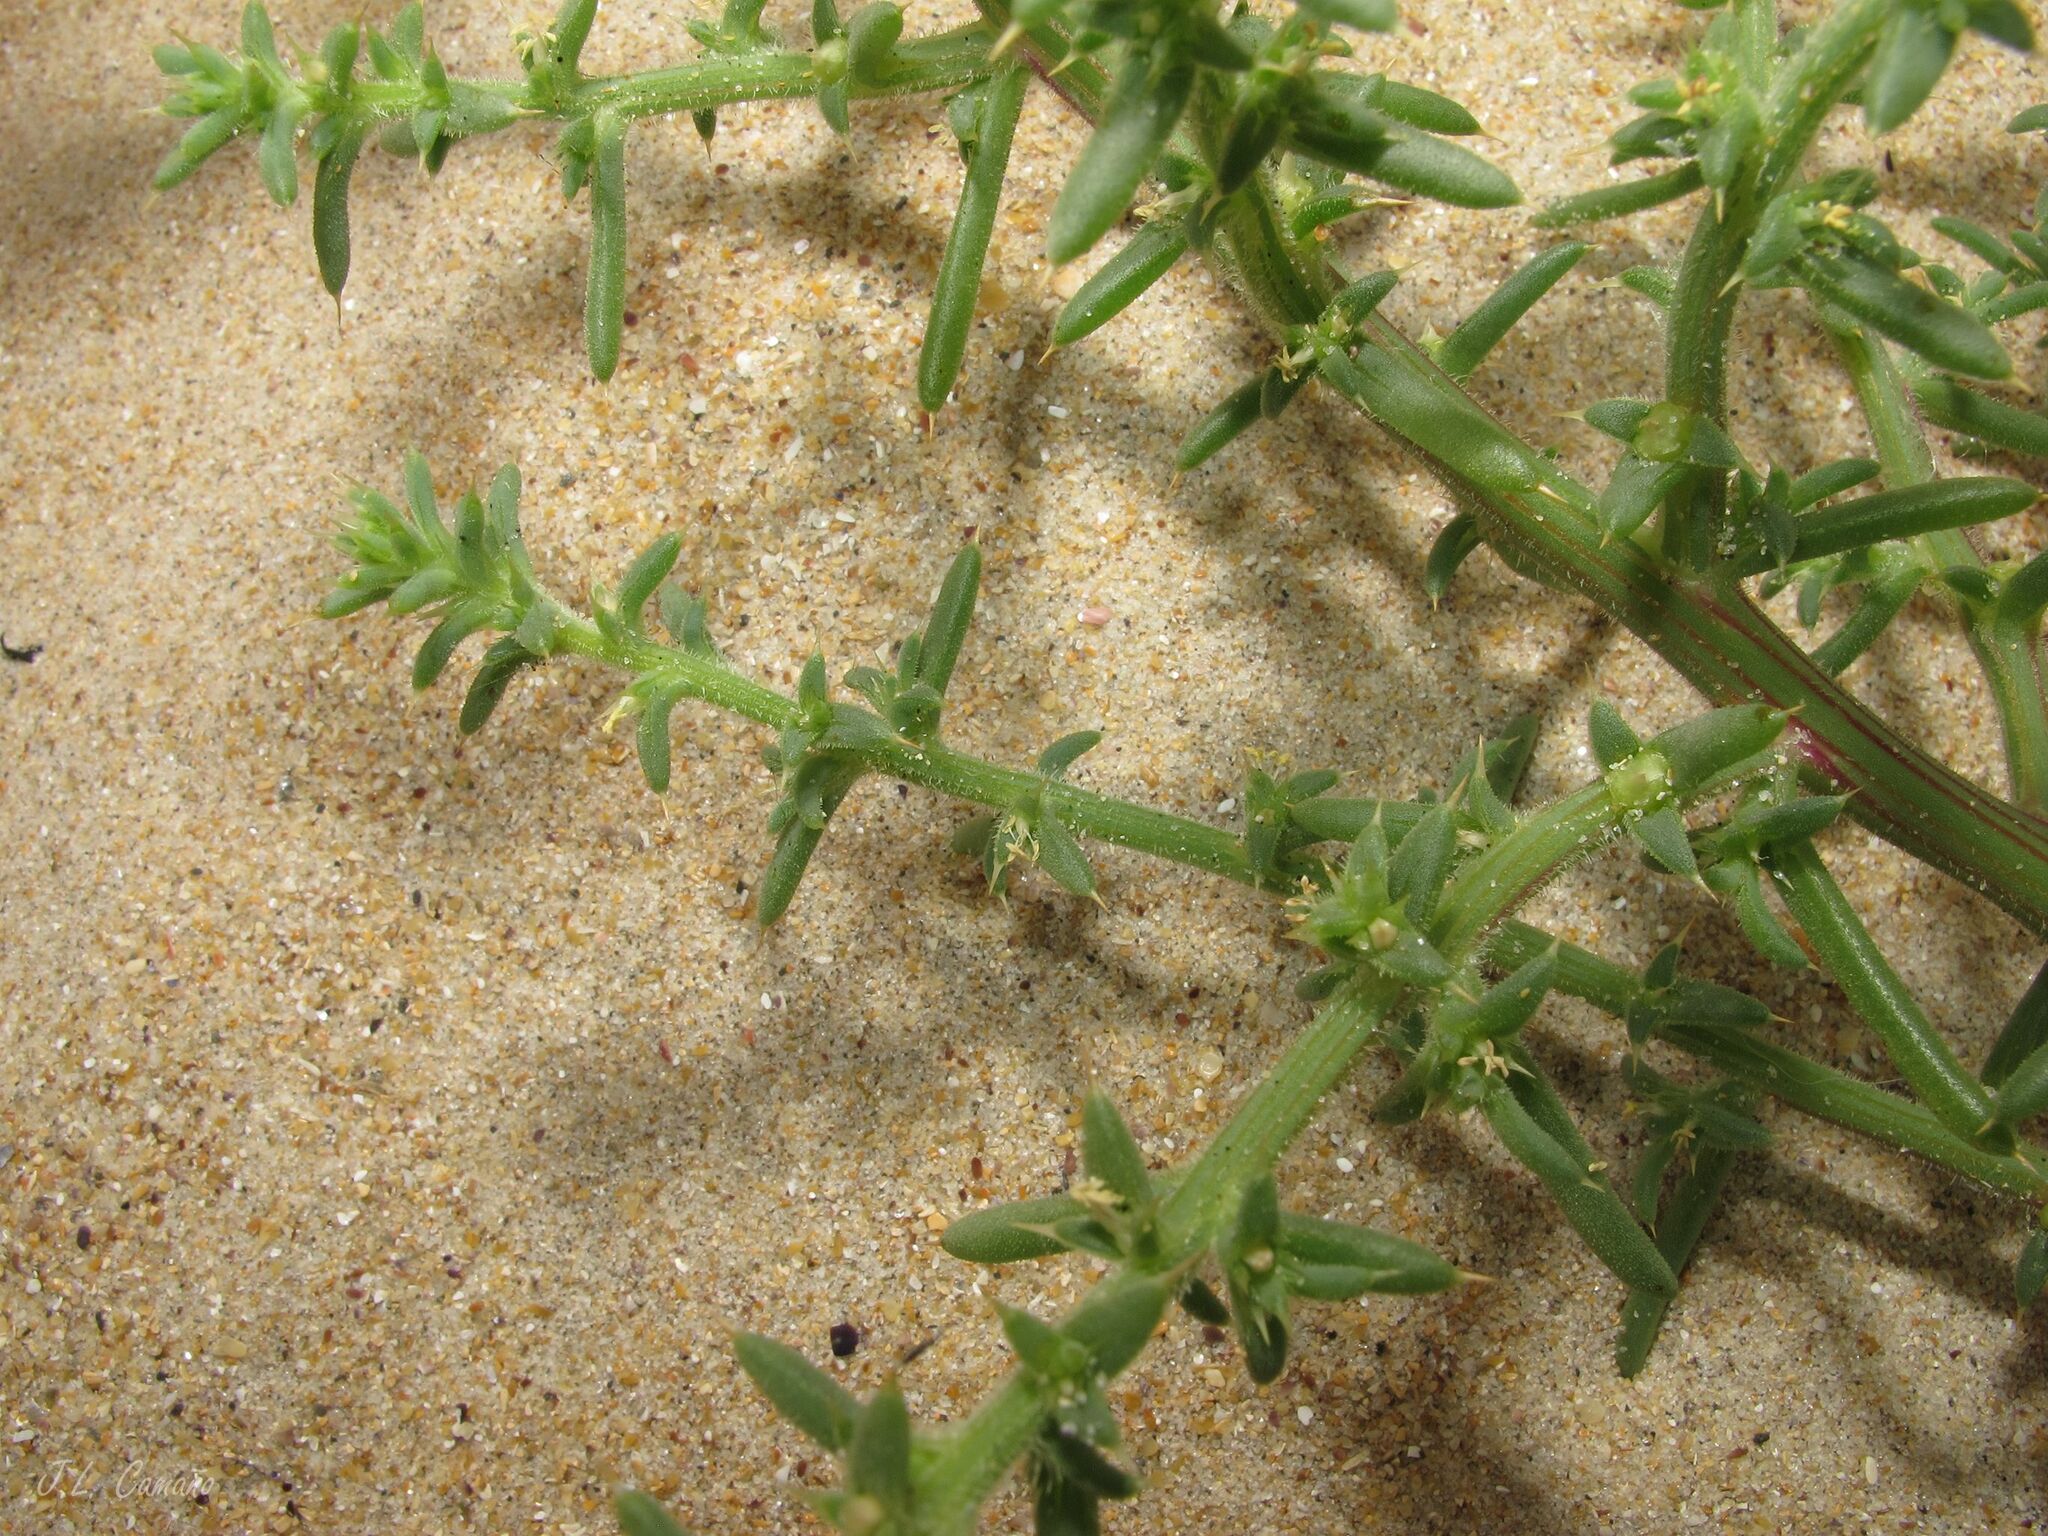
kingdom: Plantae
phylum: Tracheophyta
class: Magnoliopsida
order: Caryophyllales
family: Amaranthaceae
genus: Salsola
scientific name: Salsola kali
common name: Saltwort
